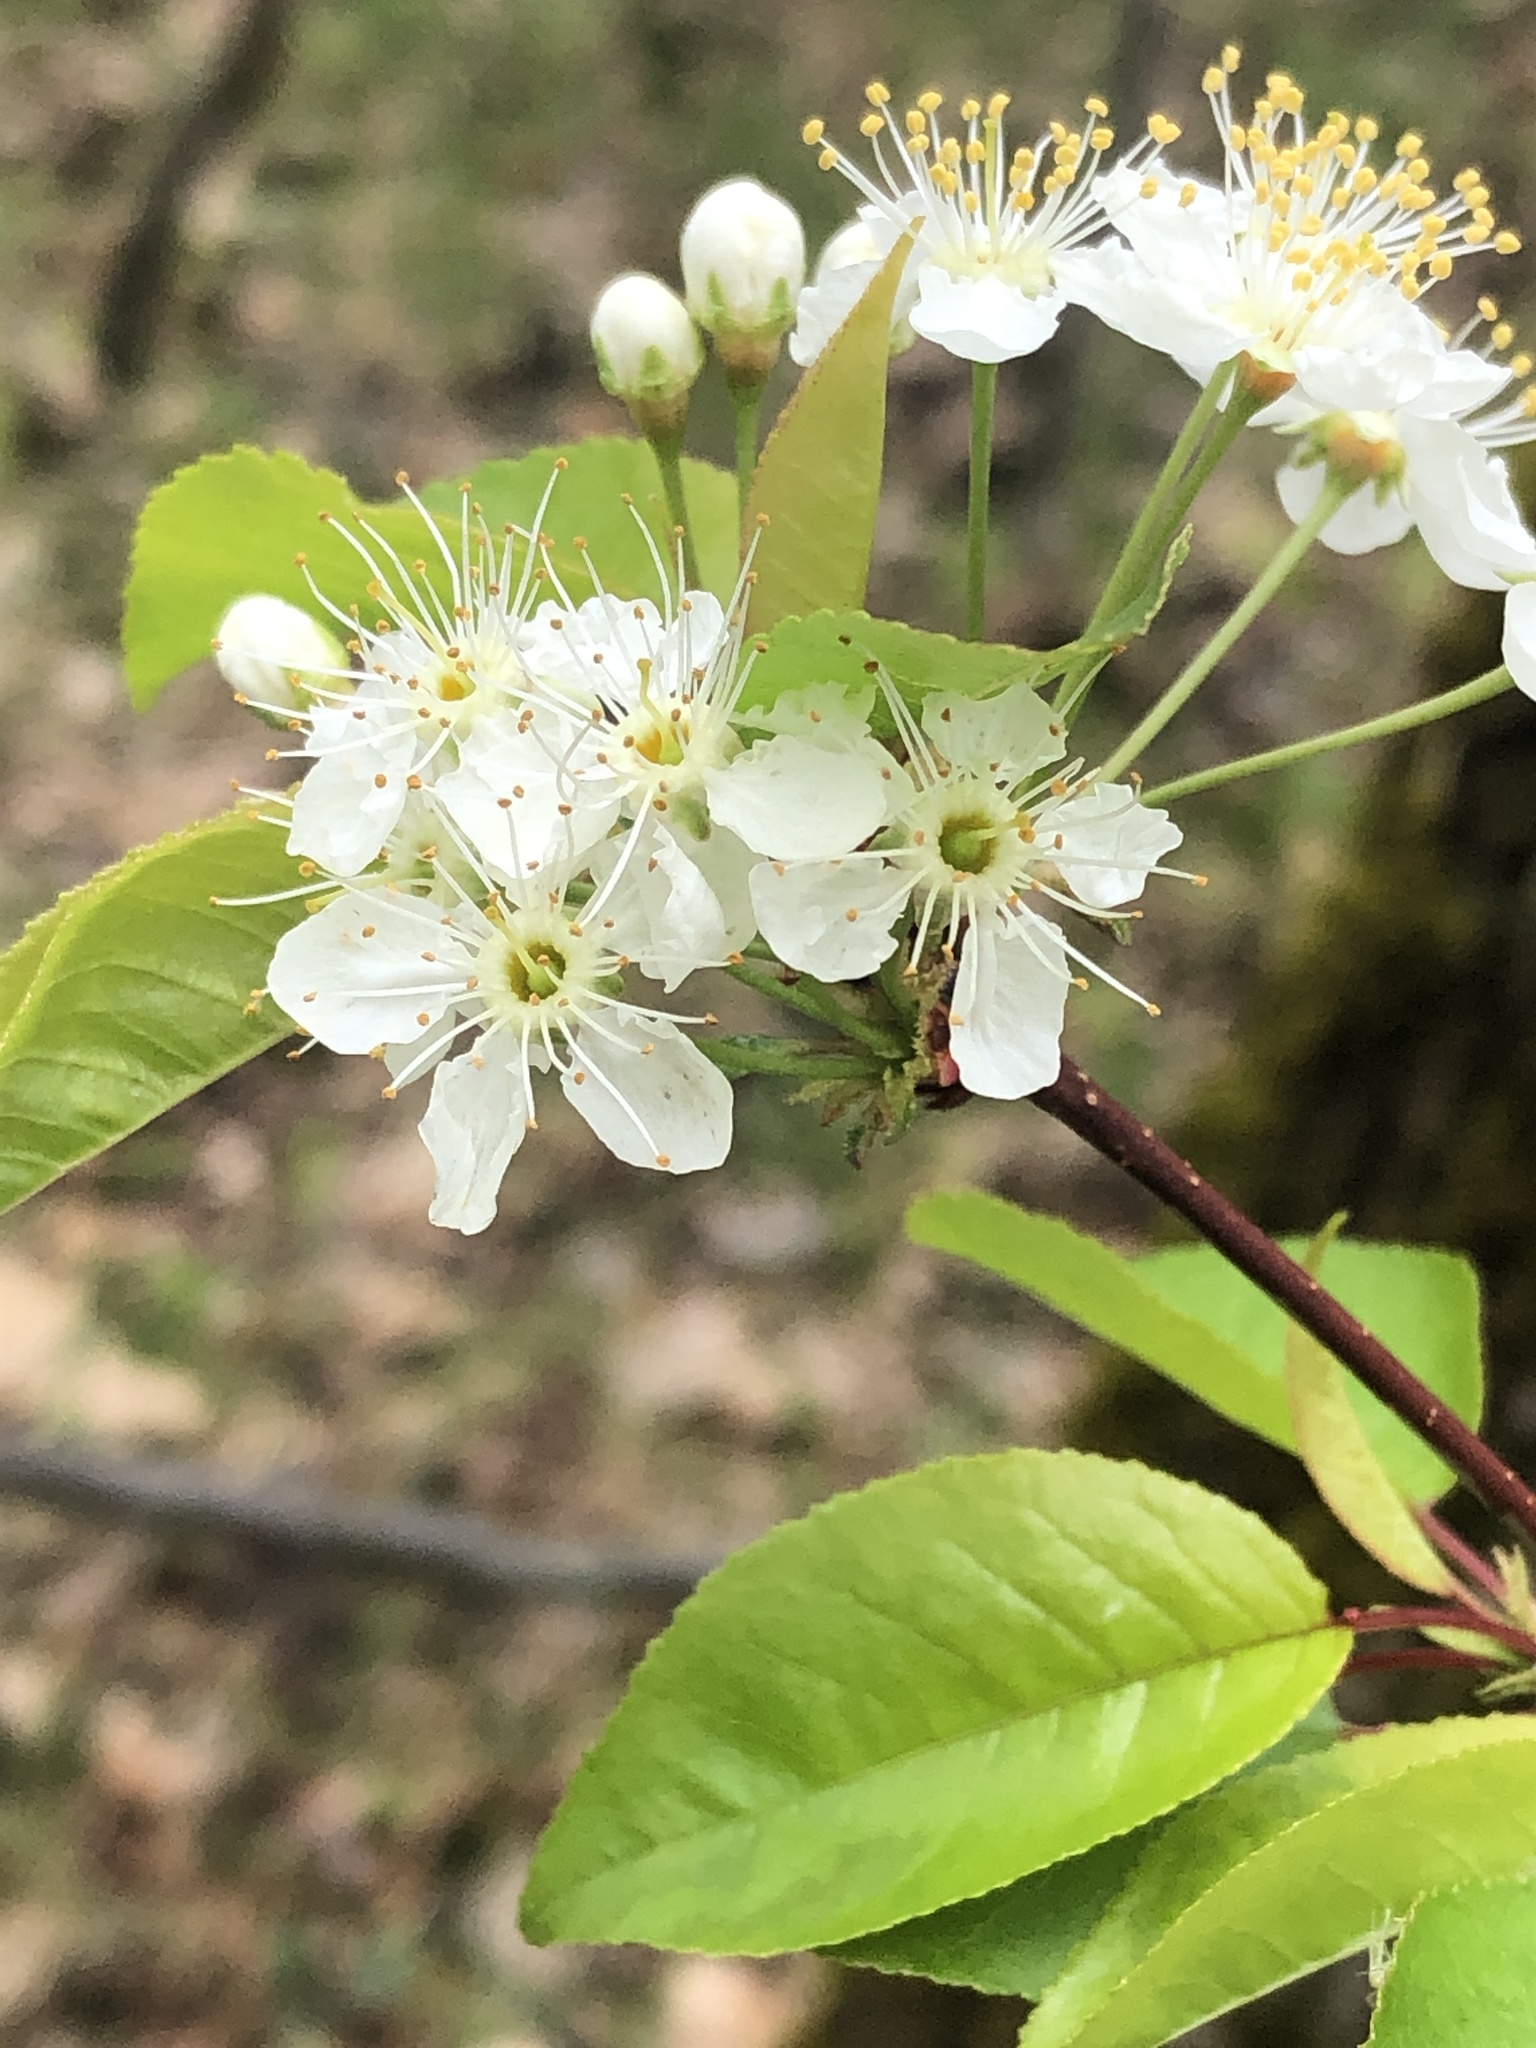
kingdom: Plantae
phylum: Tracheophyta
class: Magnoliopsida
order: Rosales
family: Rosaceae
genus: Prunus
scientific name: Prunus pensylvanica
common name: Pin cherry
